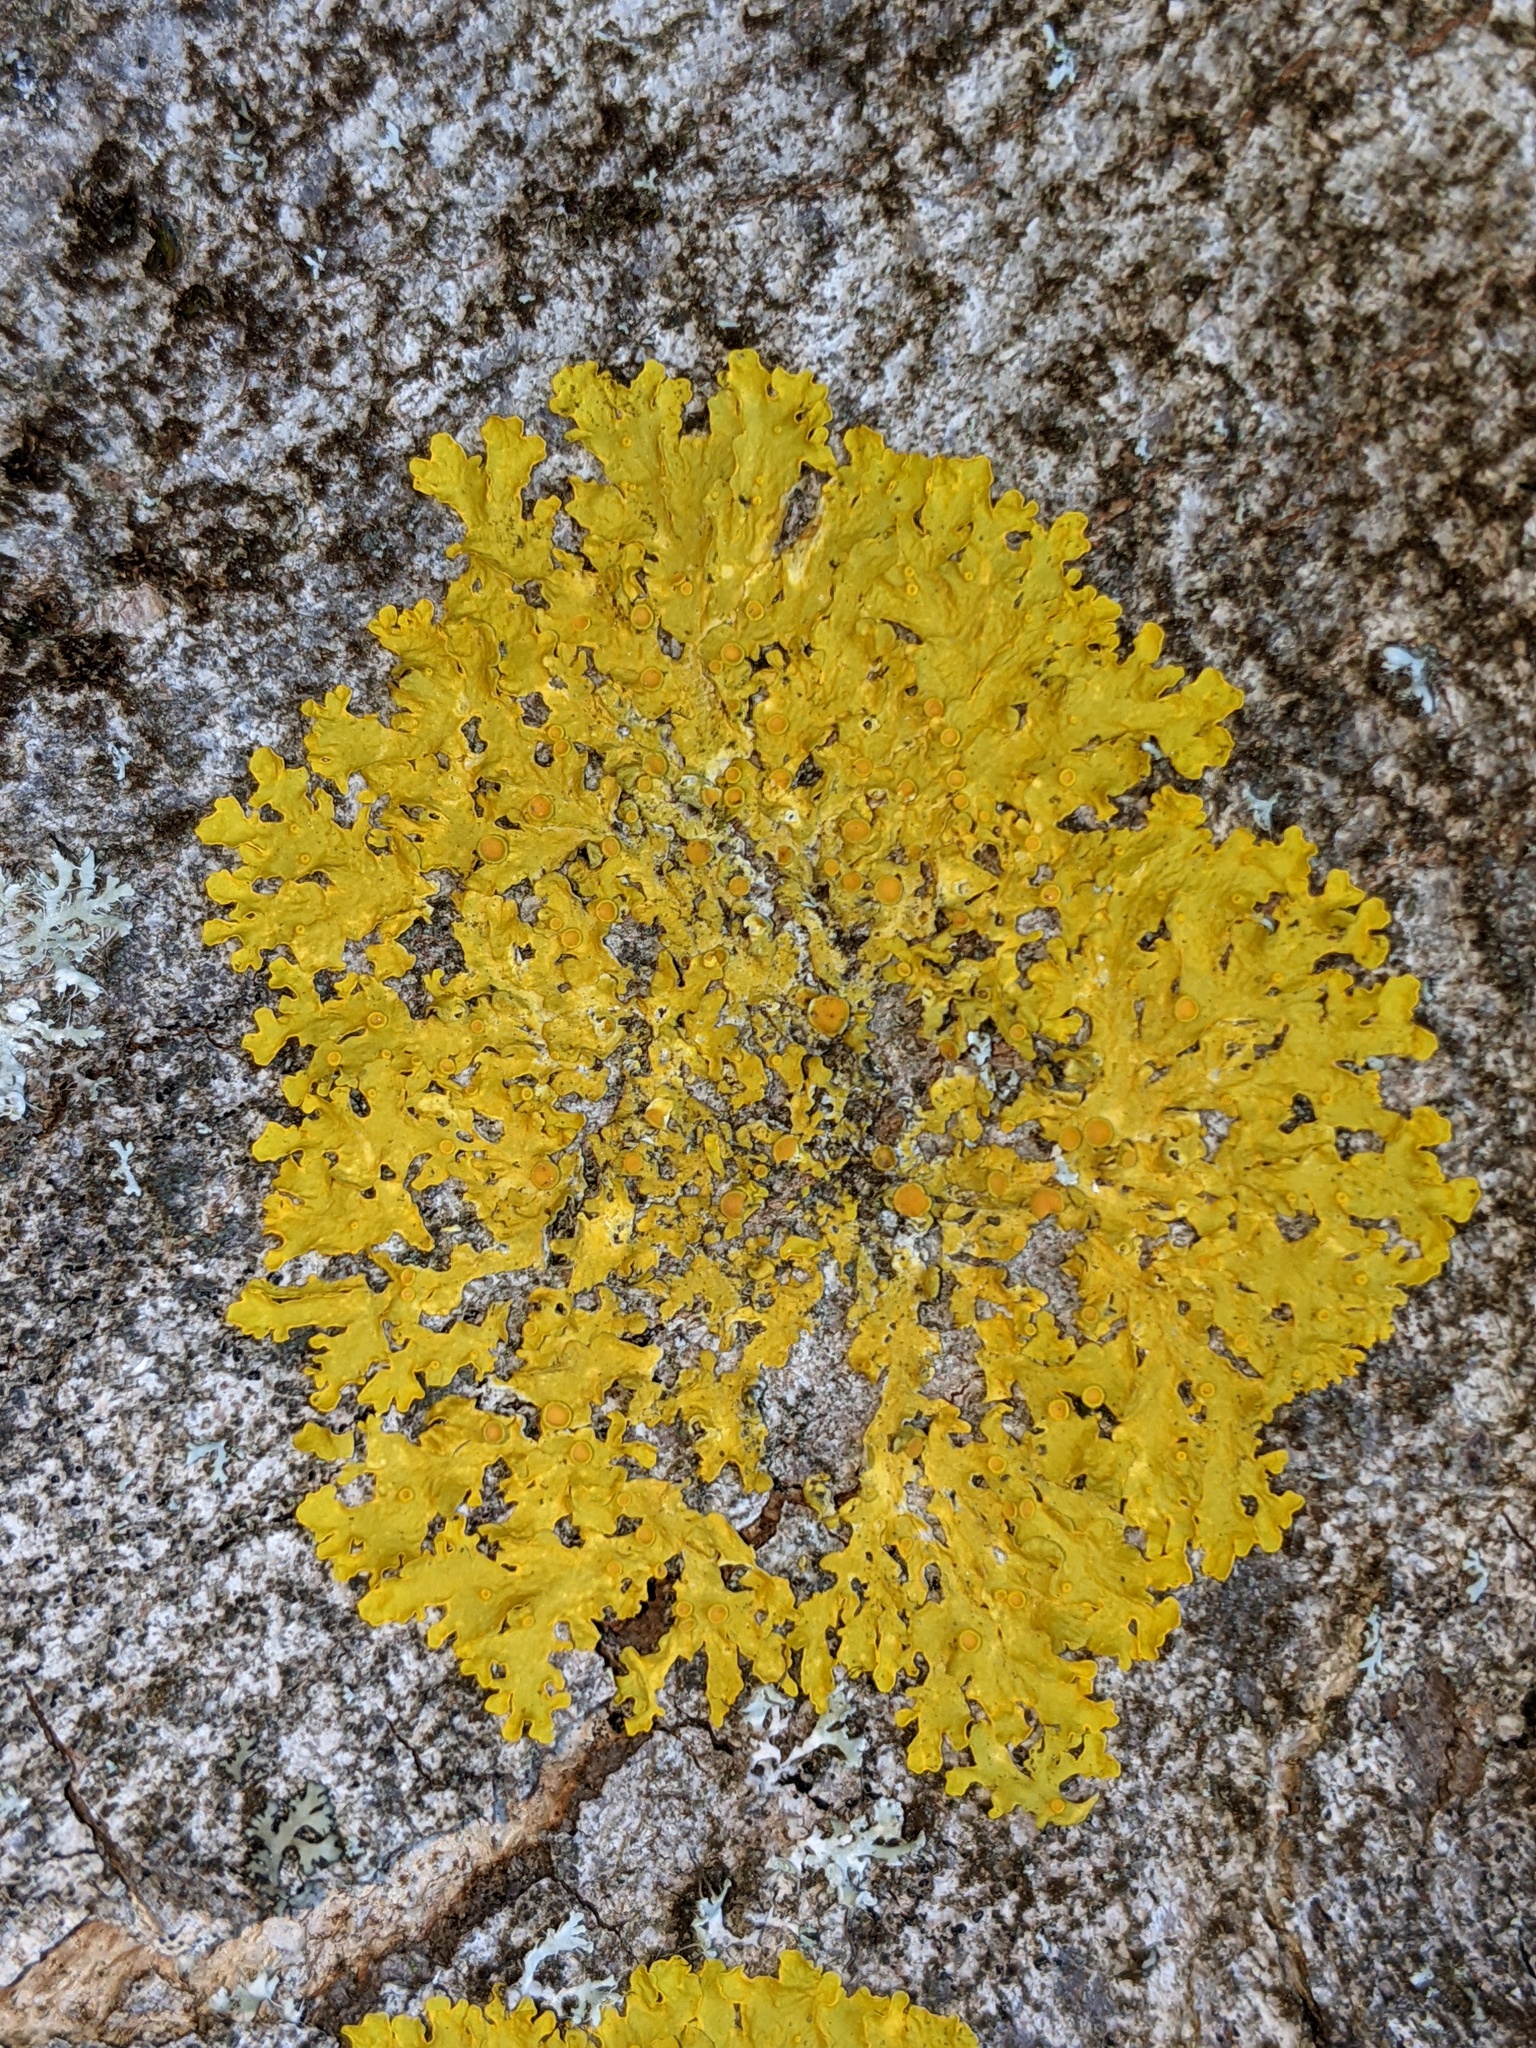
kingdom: Fungi
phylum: Ascomycota
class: Lecanoromycetes
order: Teloschistales
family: Teloschistaceae
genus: Xanthoria
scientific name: Xanthoria parietina
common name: Common orange lichen
